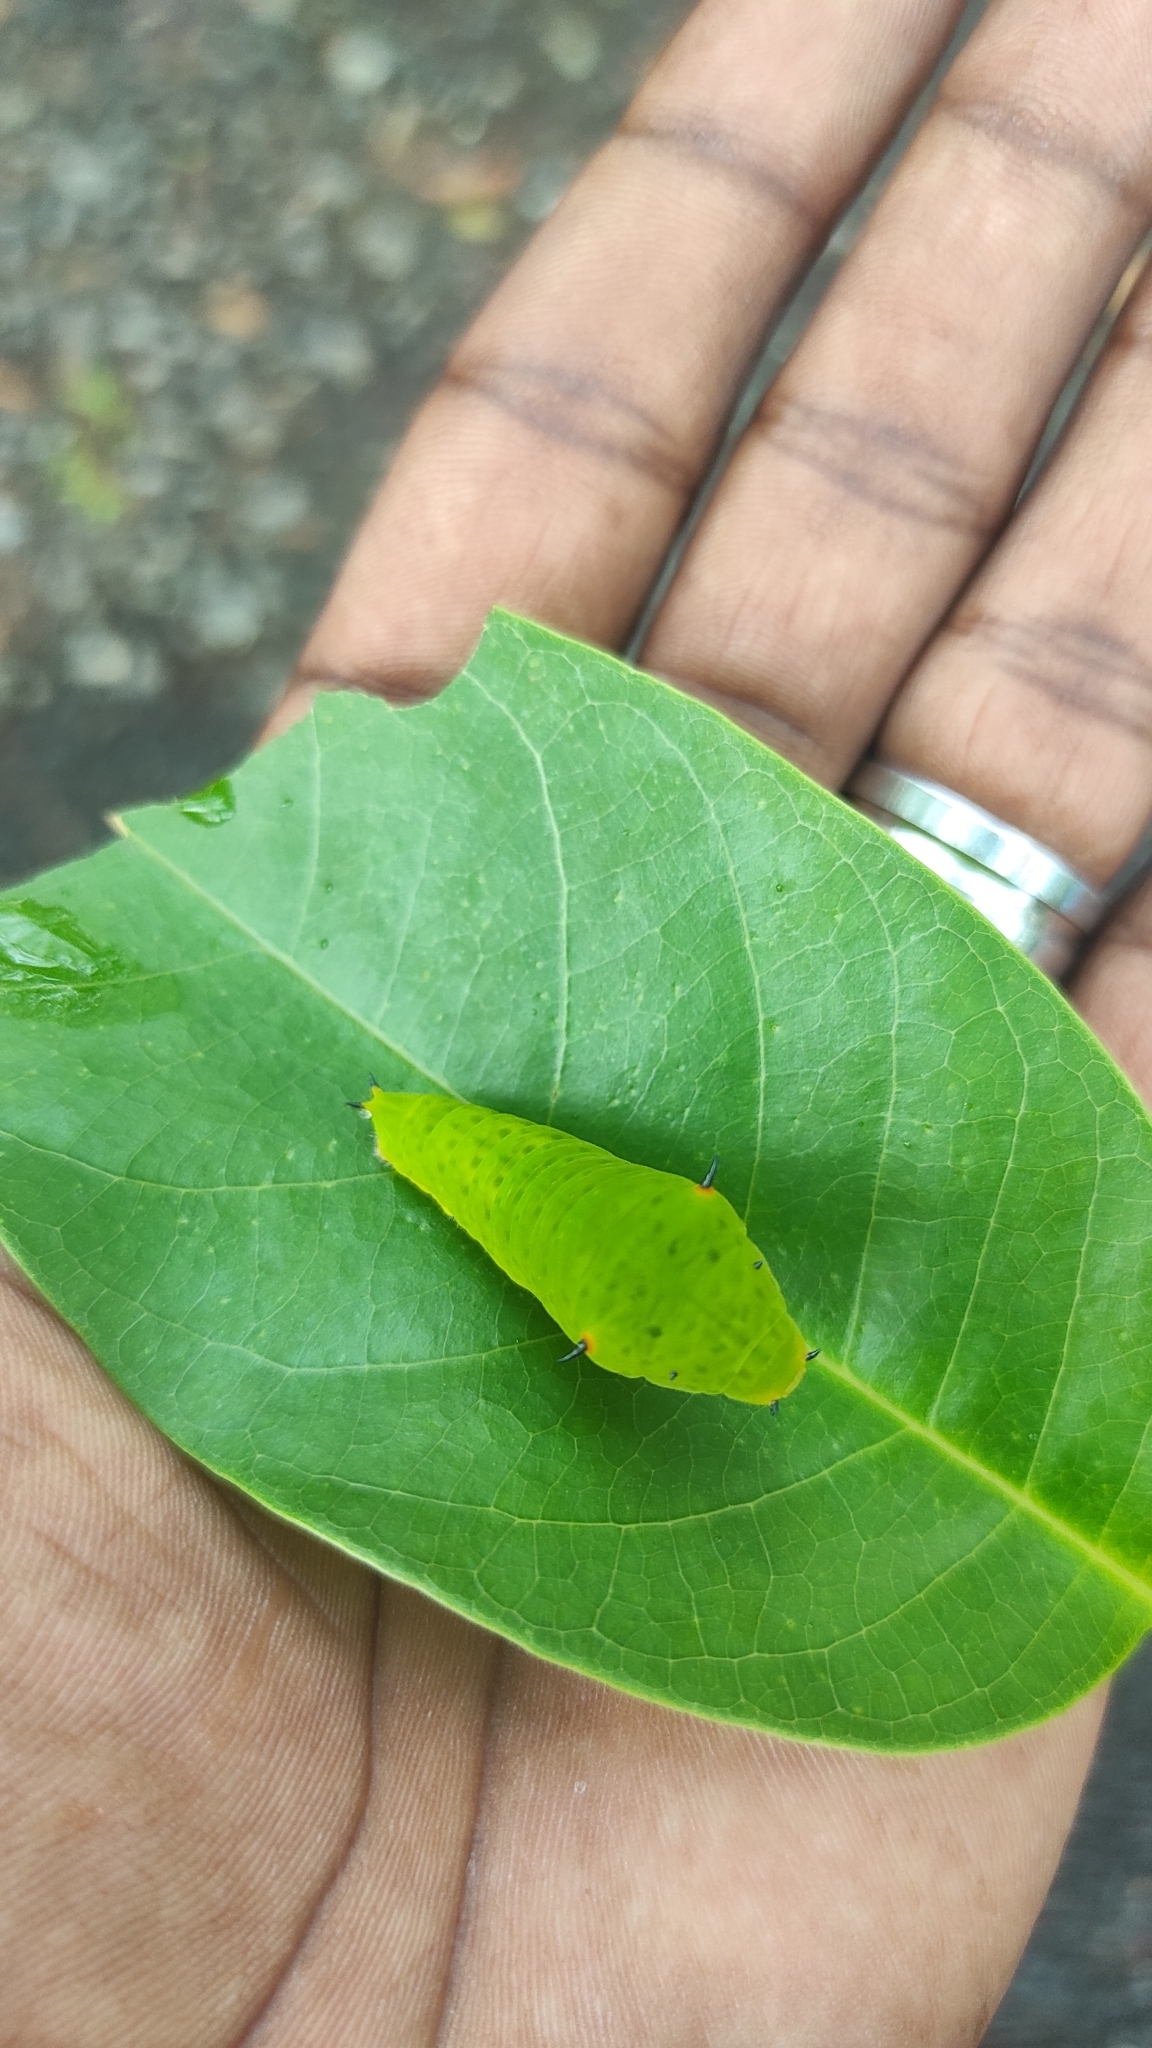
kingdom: Animalia
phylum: Arthropoda
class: Insecta
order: Lepidoptera
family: Papilionidae
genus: Graphium
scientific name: Graphium agamemnon
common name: Tailed jay
